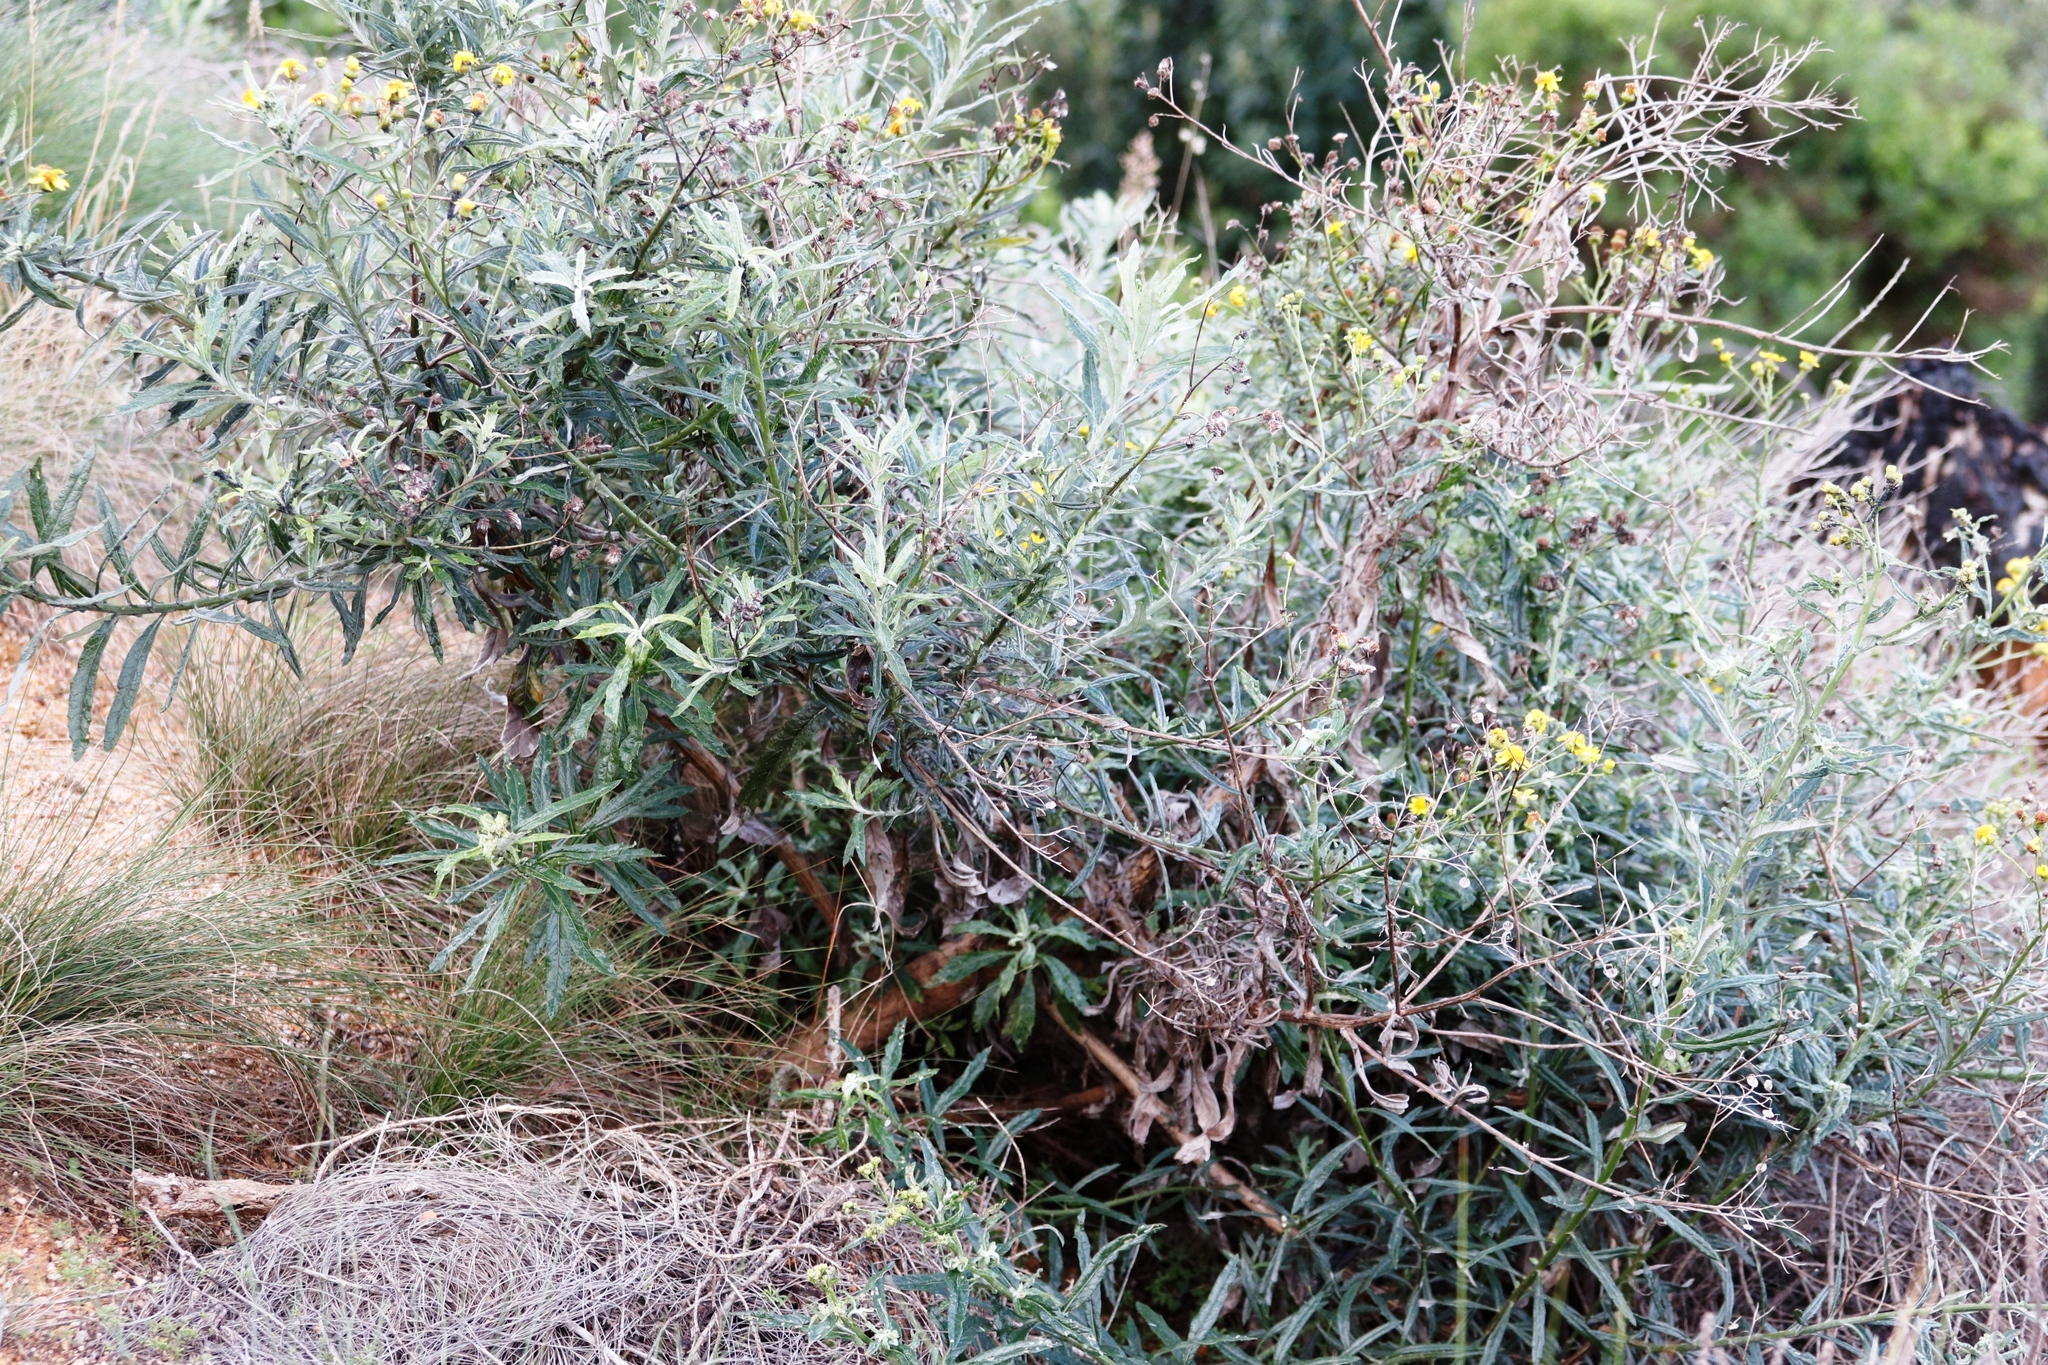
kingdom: Plantae
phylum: Tracheophyta
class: Magnoliopsida
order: Asterales
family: Asteraceae
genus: Senecio
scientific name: Senecio pterophorus
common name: Shoddy ragwort
